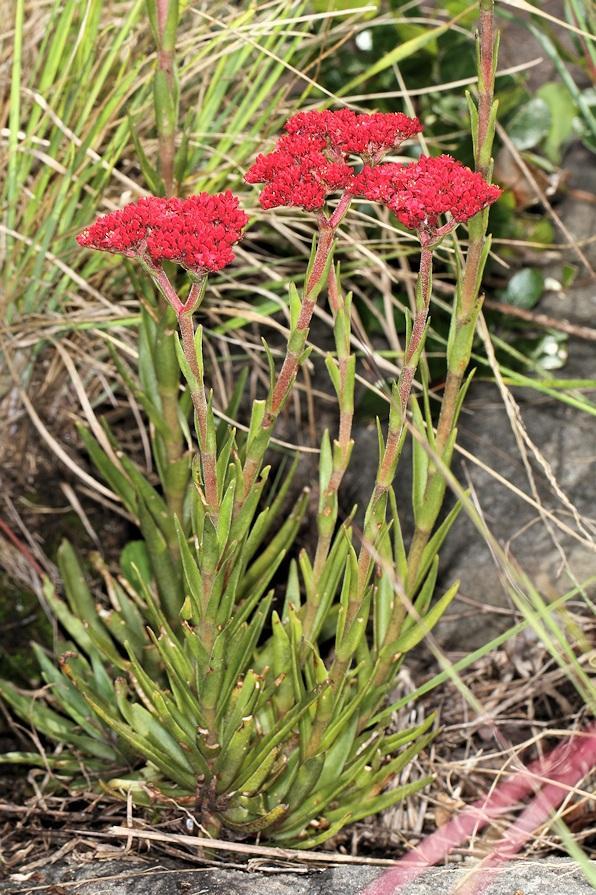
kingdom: Plantae
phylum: Tracheophyta
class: Magnoliopsida
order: Saxifragales
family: Crassulaceae
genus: Crassula
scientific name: Crassula alba
